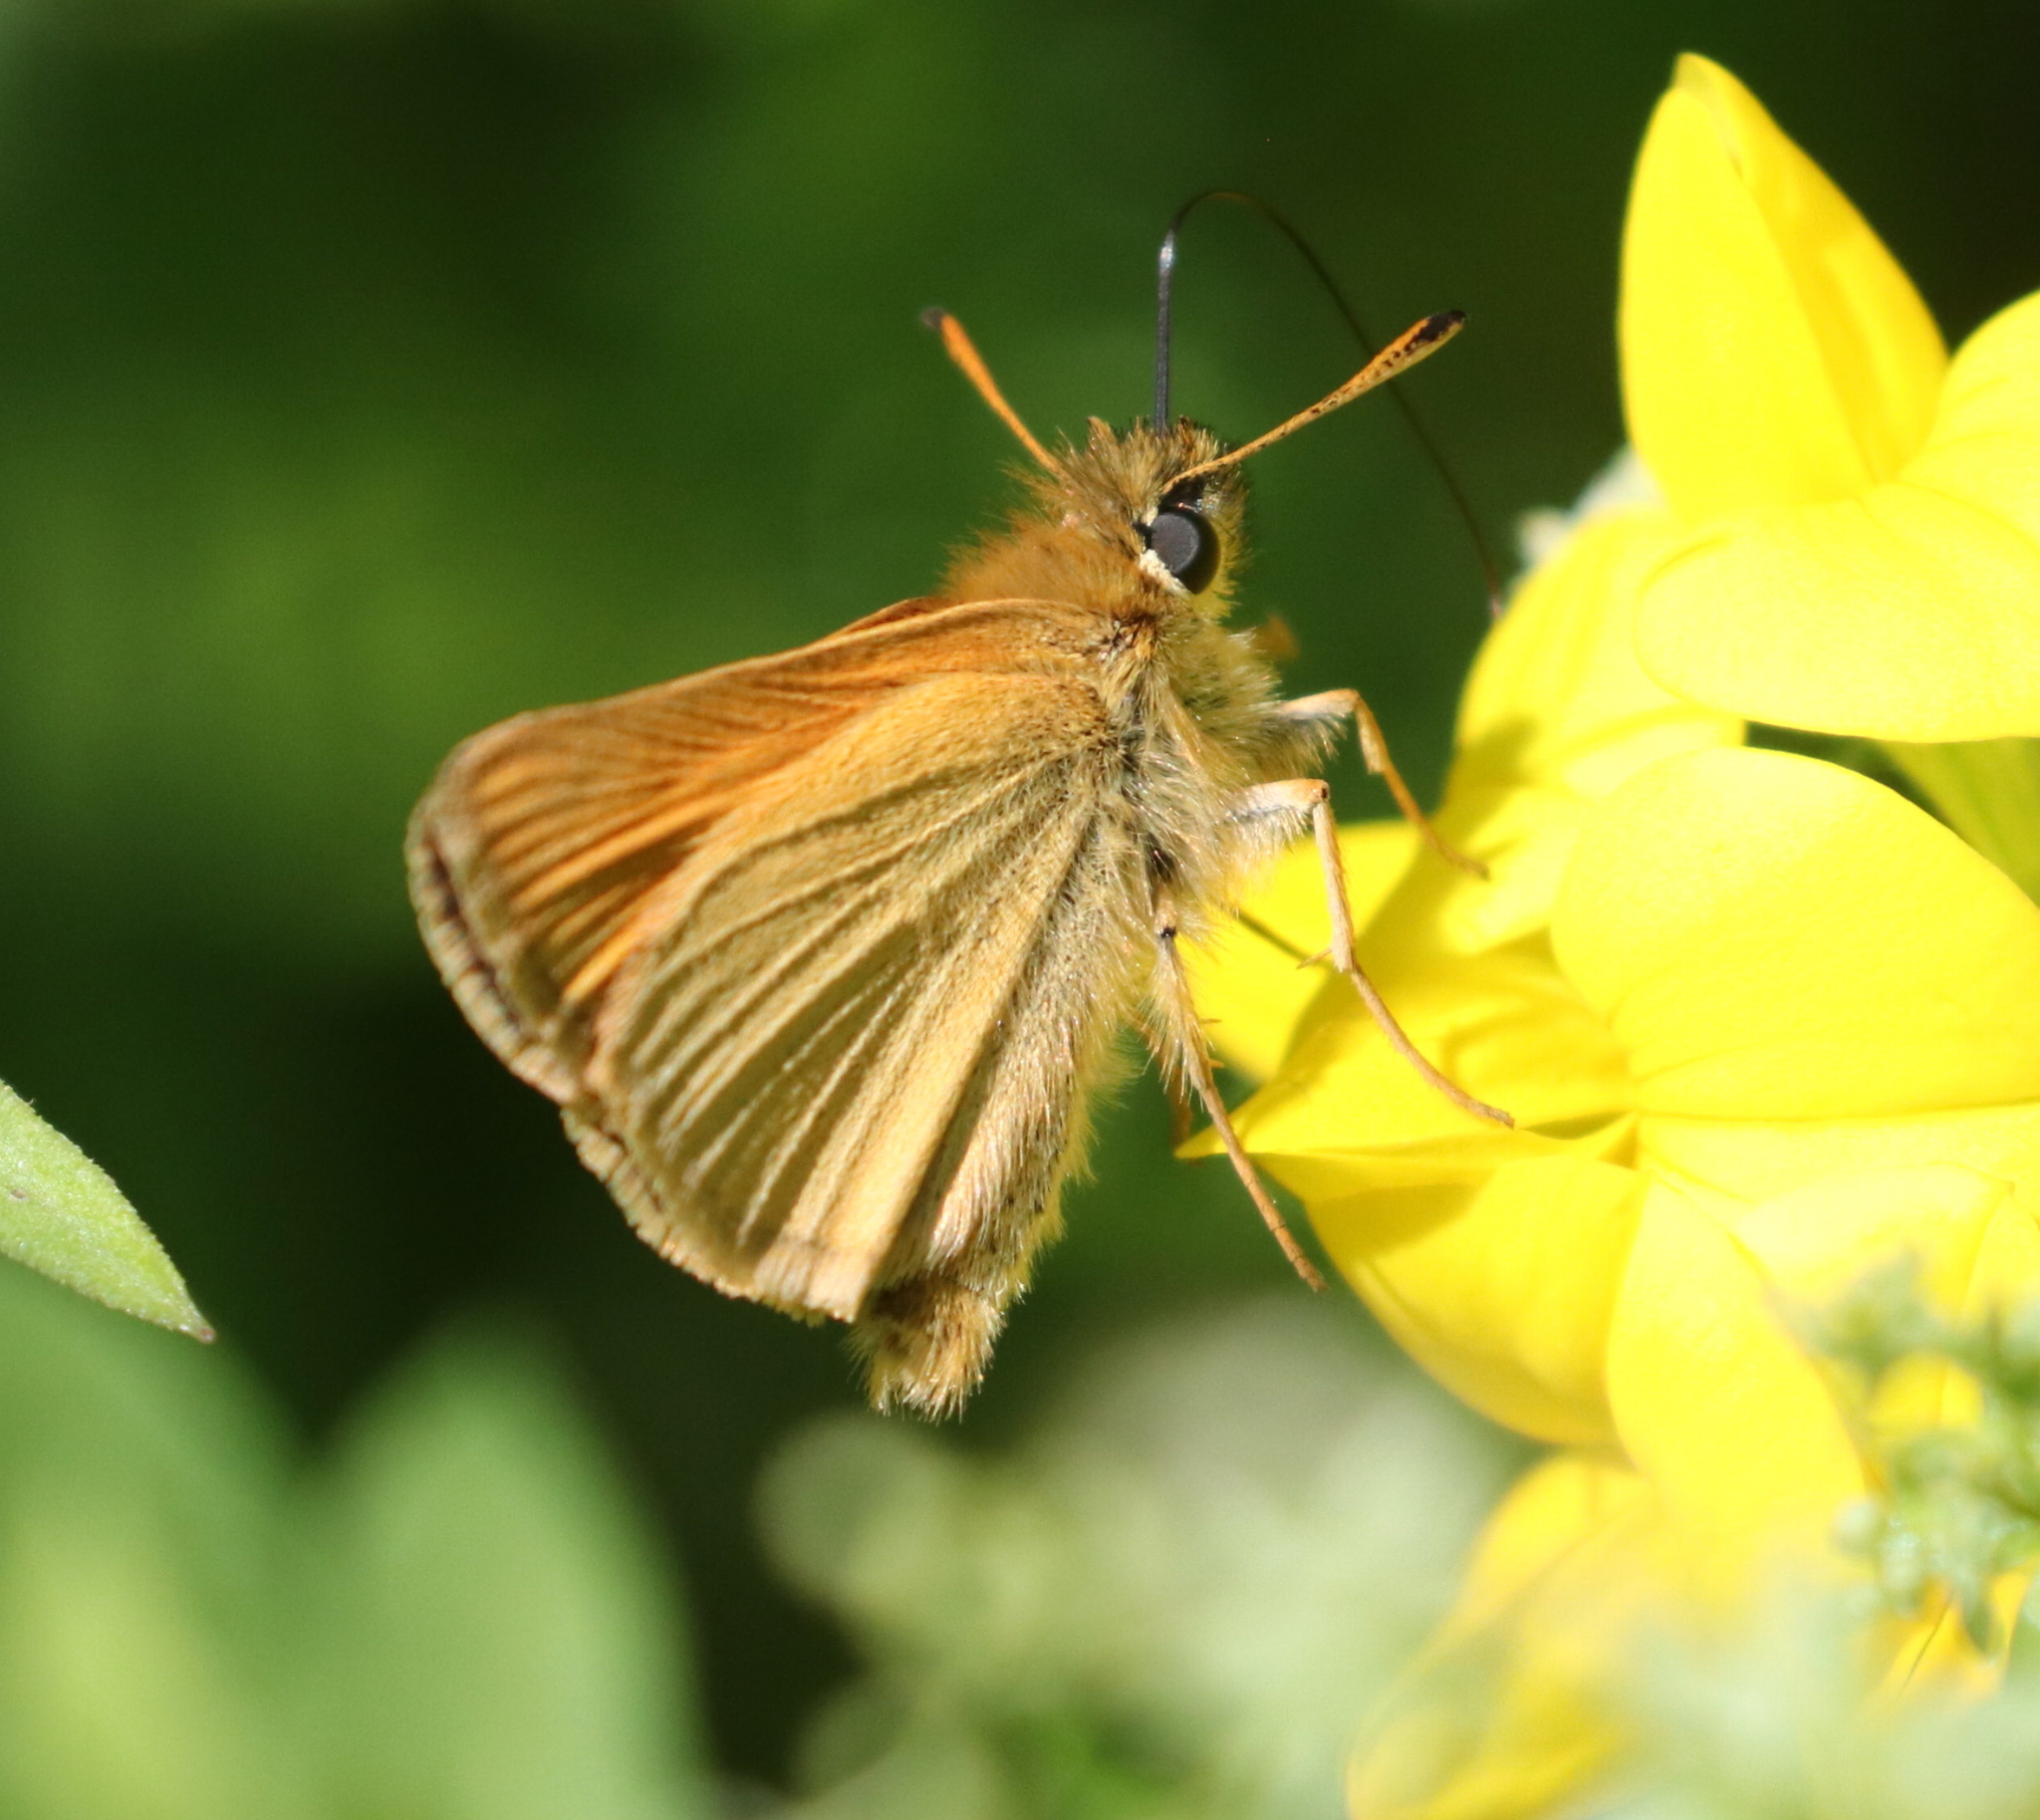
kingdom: Animalia
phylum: Arthropoda
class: Insecta
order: Lepidoptera
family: Hesperiidae
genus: Thymelicus
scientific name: Thymelicus lineola
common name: Essex skipper
